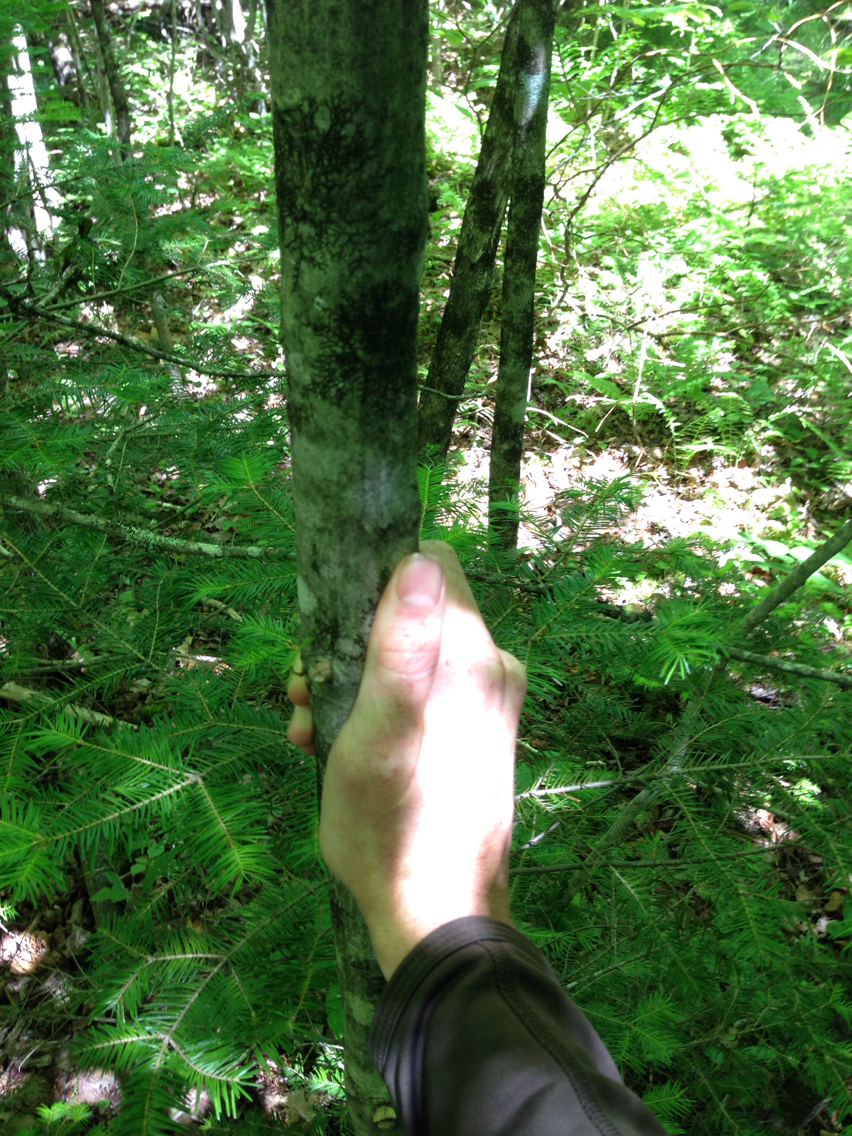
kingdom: Plantae
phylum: Tracheophyta
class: Magnoliopsida
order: Fagales
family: Betulaceae
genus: Carpinus
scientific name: Carpinus caroliniana
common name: American hornbeam
